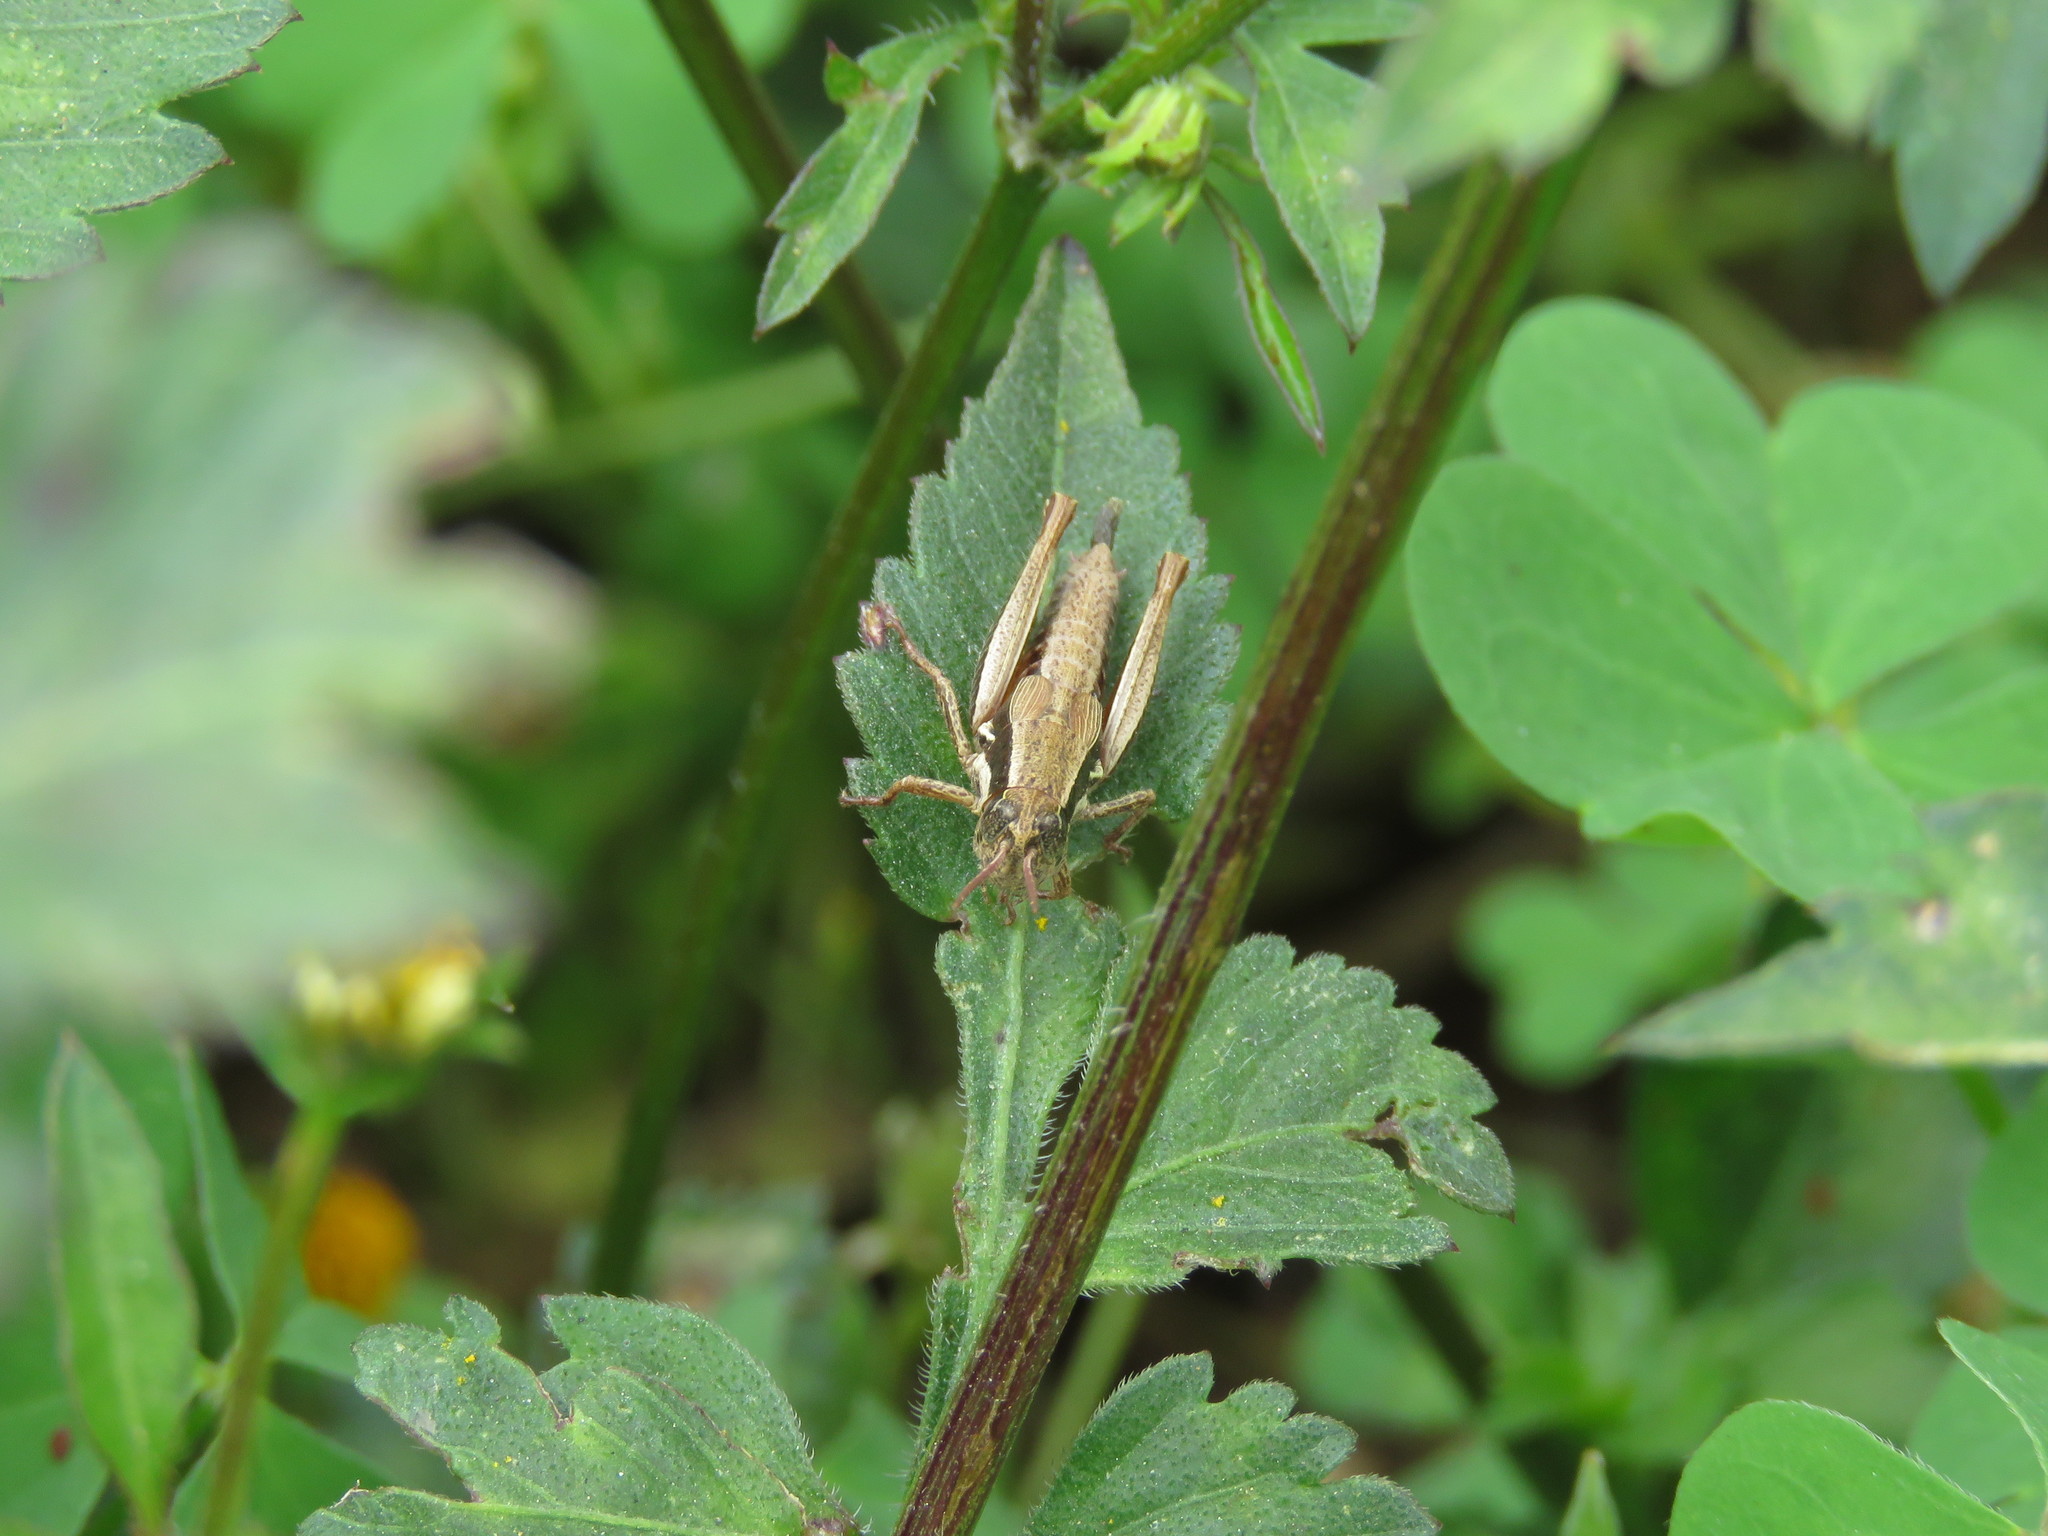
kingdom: Animalia
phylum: Arthropoda
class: Insecta
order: Orthoptera
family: Acrididae
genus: Bogotacris
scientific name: Bogotacris varicolor
